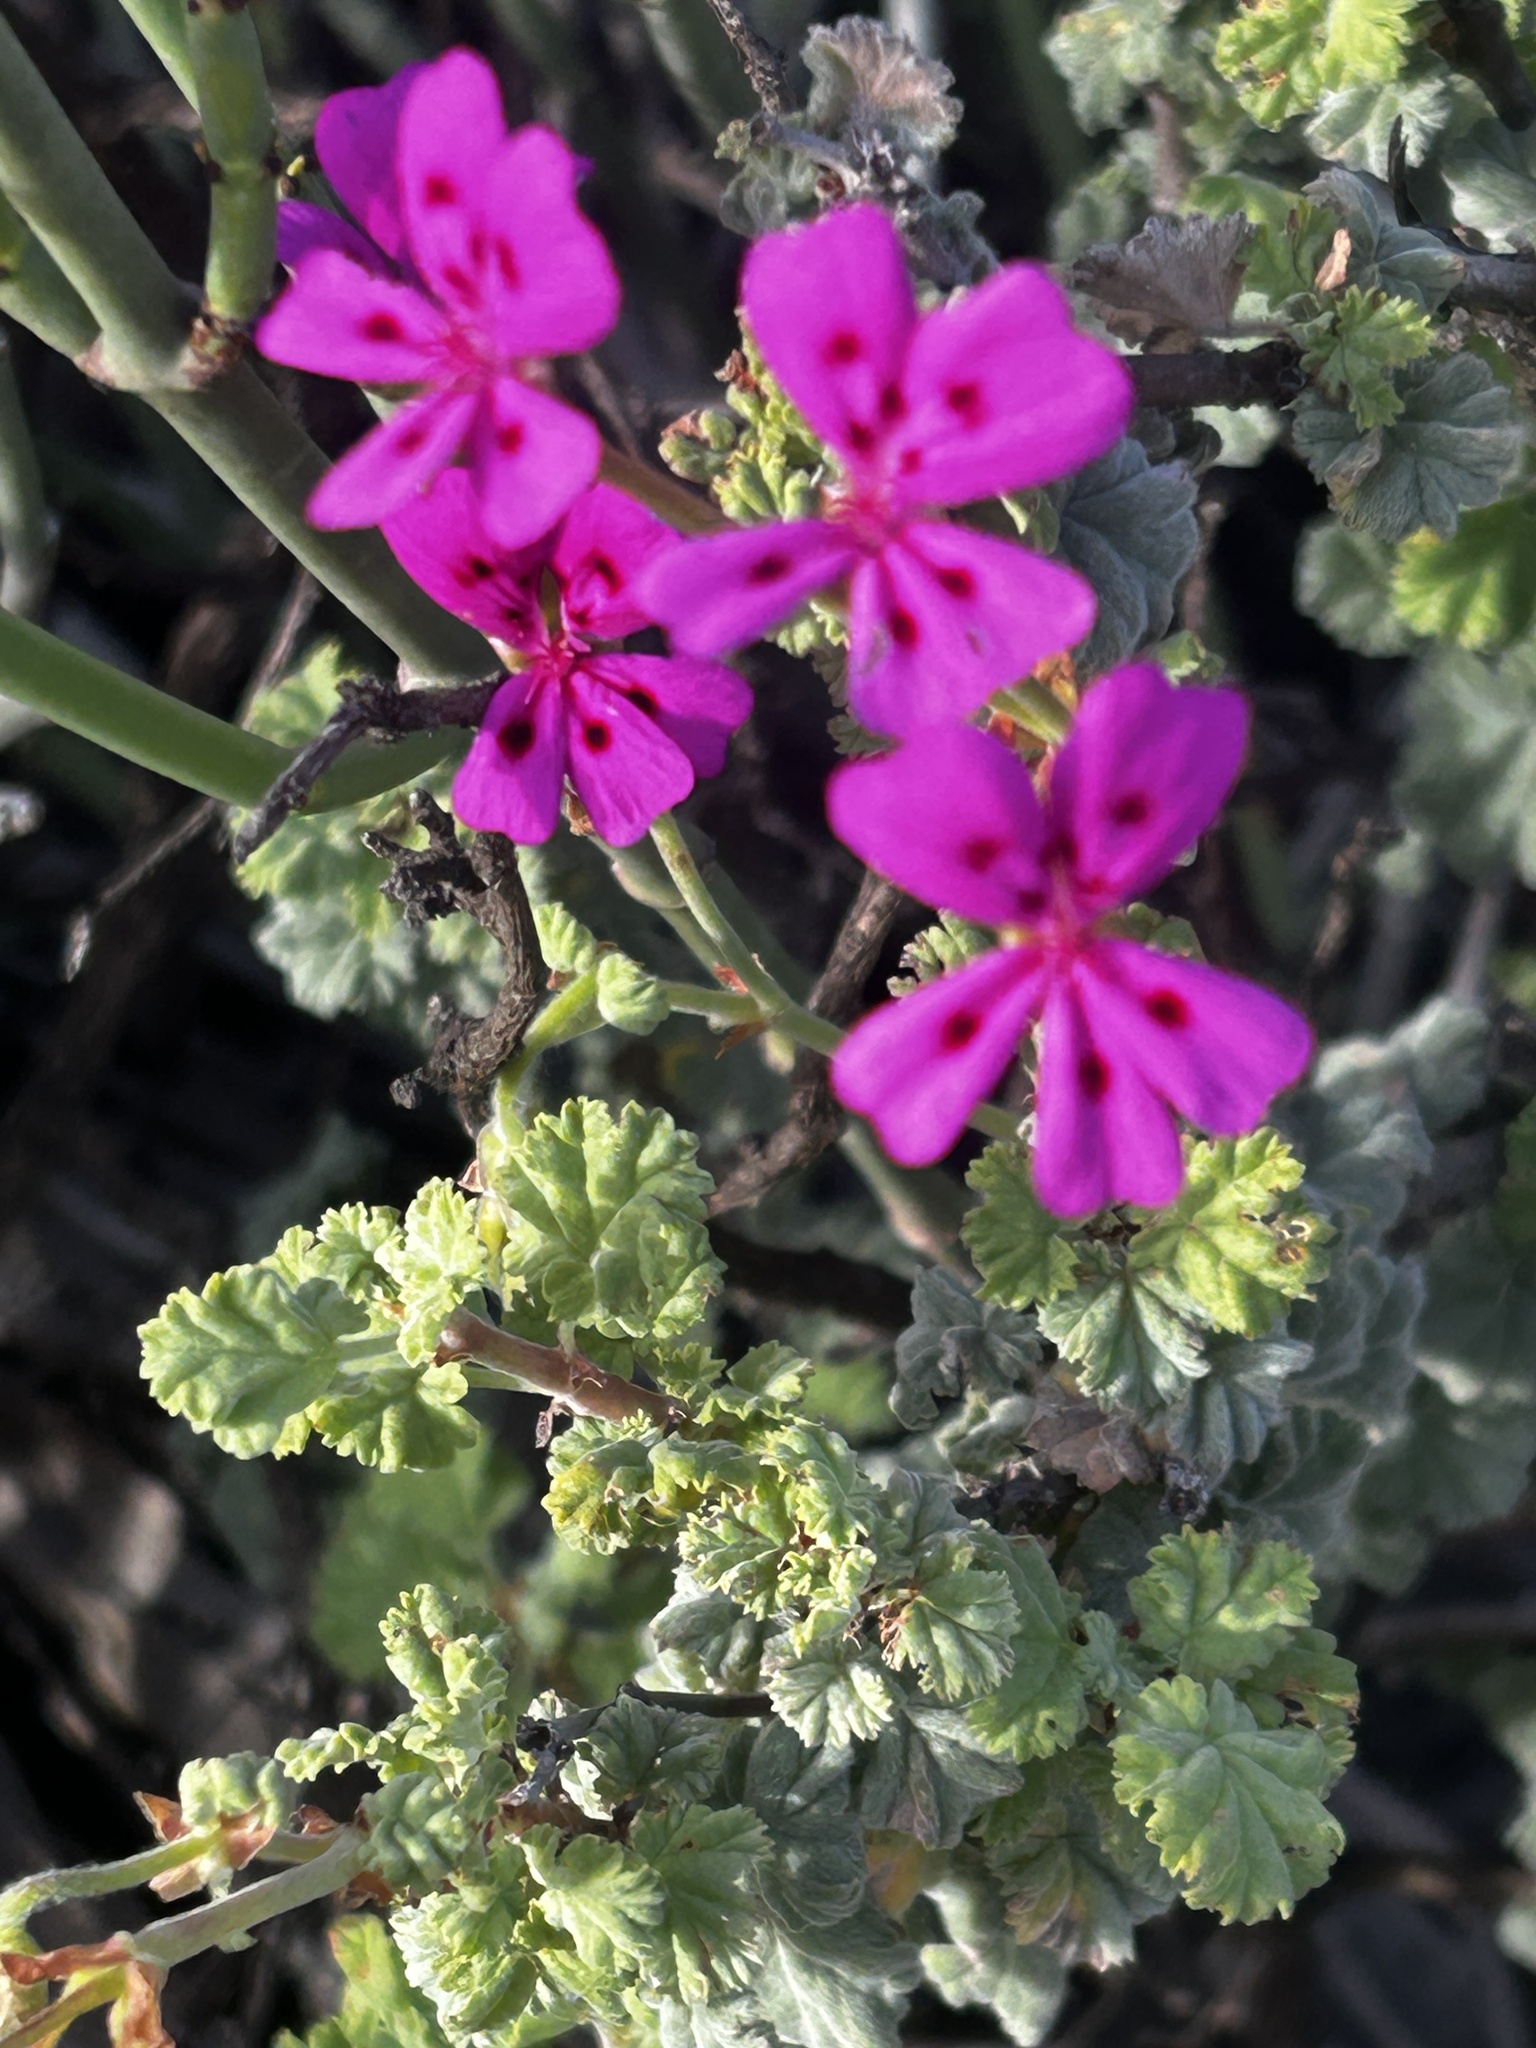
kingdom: Plantae
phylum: Tracheophyta
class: Magnoliopsida
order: Geraniales
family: Geraniaceae
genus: Pelargonium
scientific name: Pelargonium magenteum
